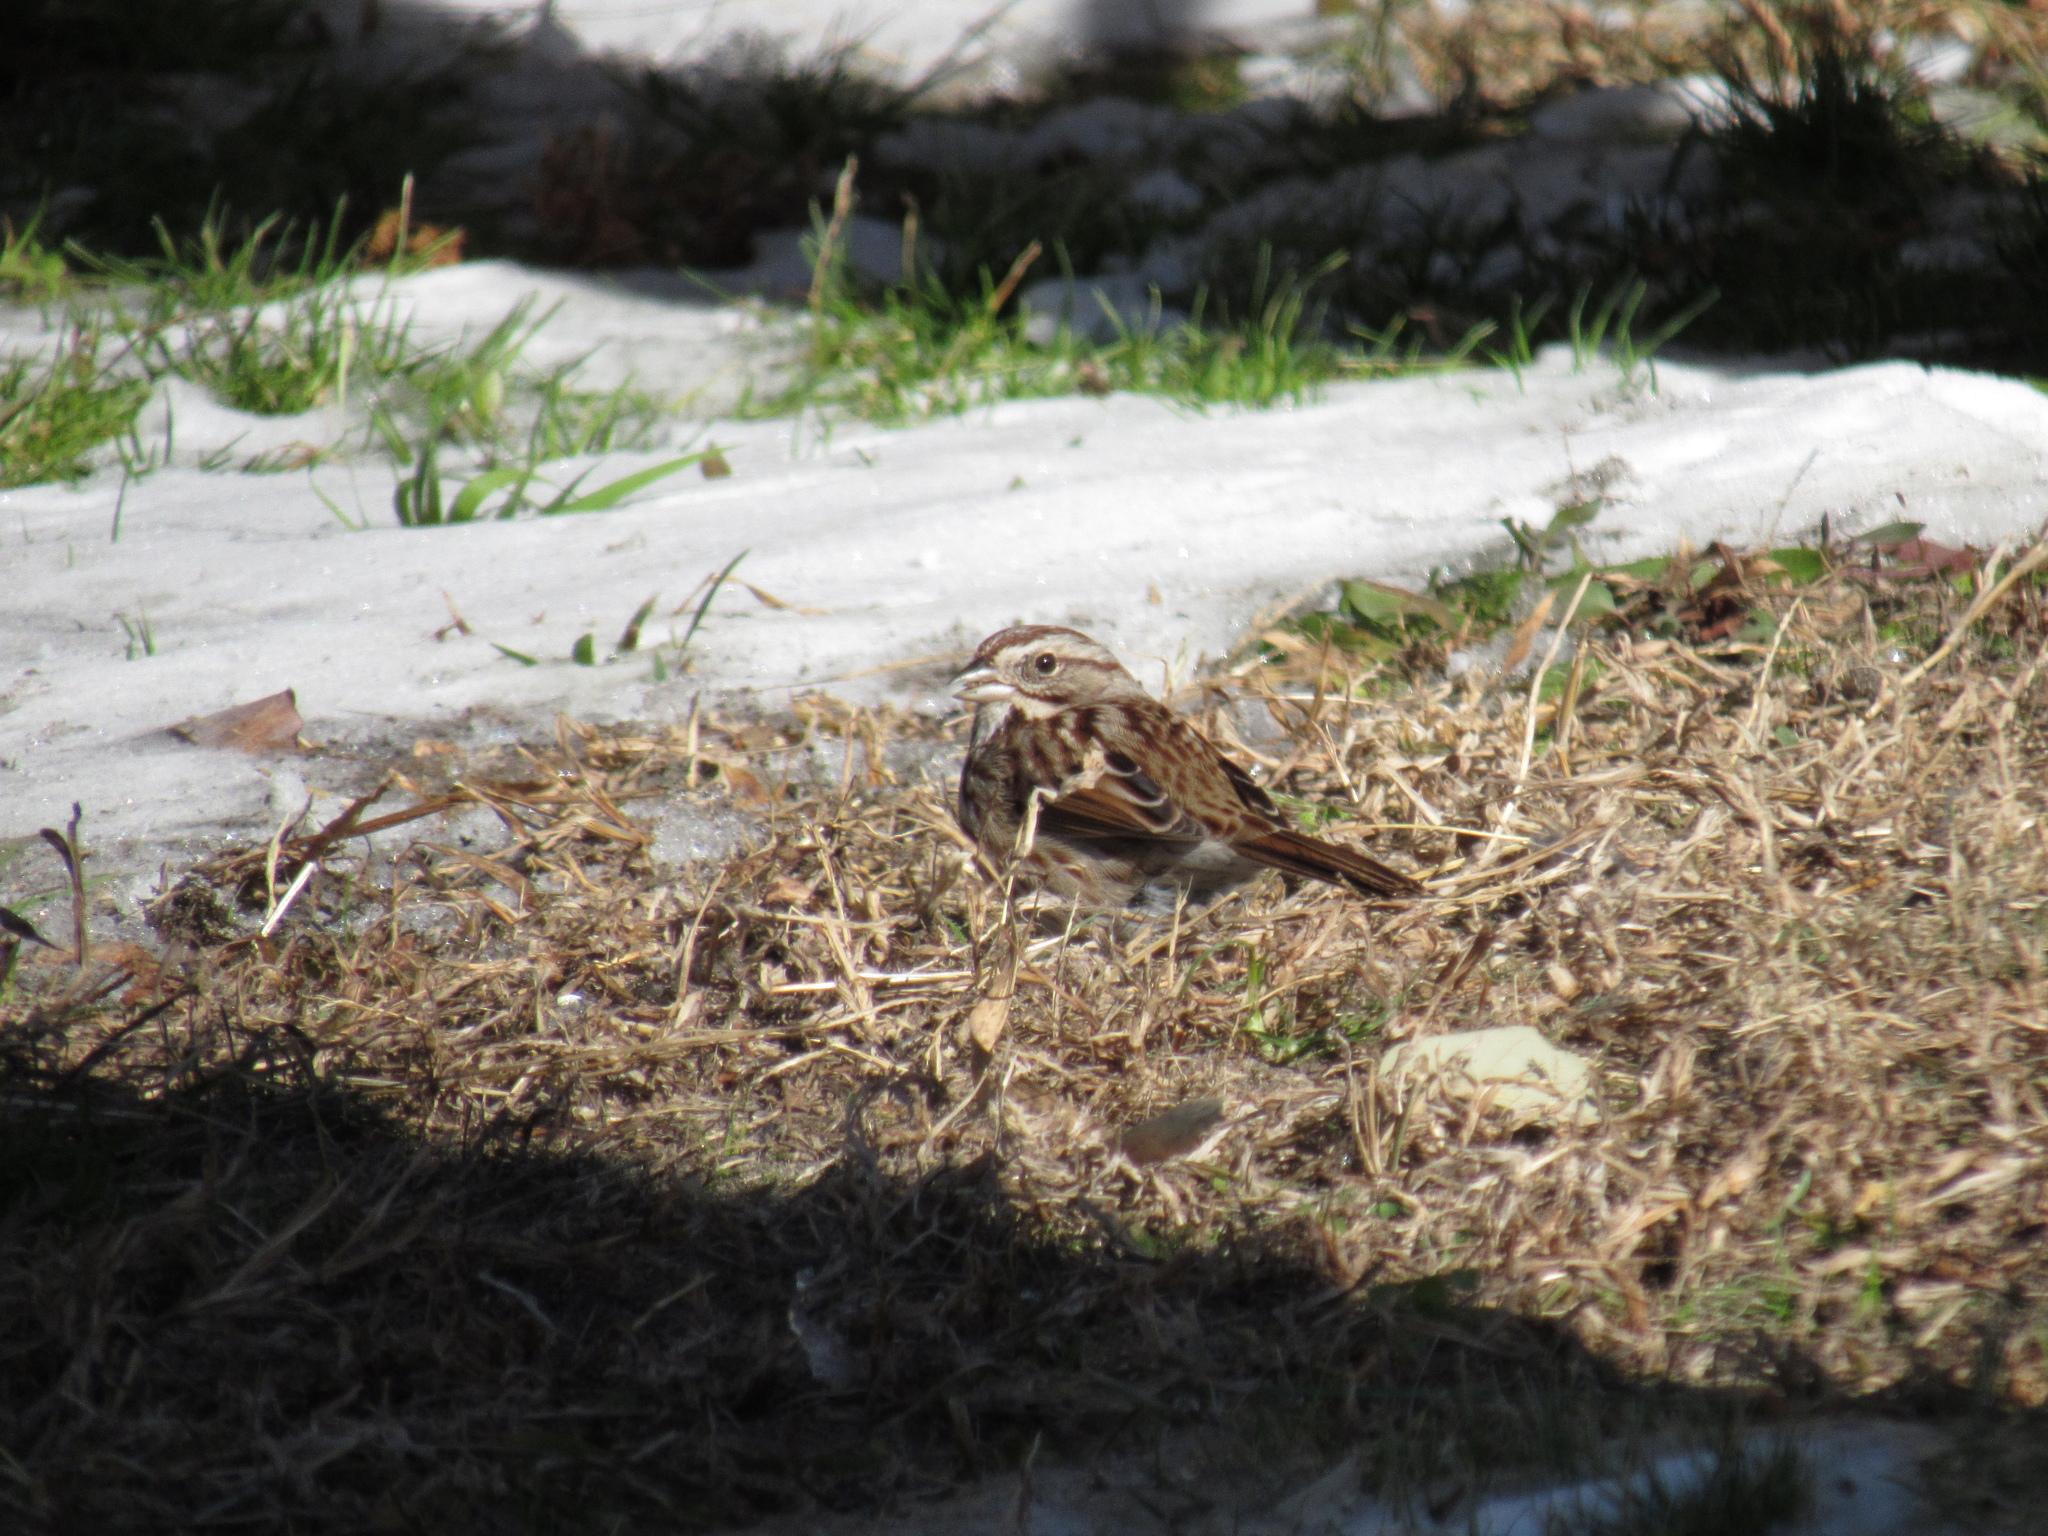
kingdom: Animalia
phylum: Chordata
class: Aves
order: Passeriformes
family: Passerellidae
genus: Melospiza
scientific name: Melospiza melodia
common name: Song sparrow
